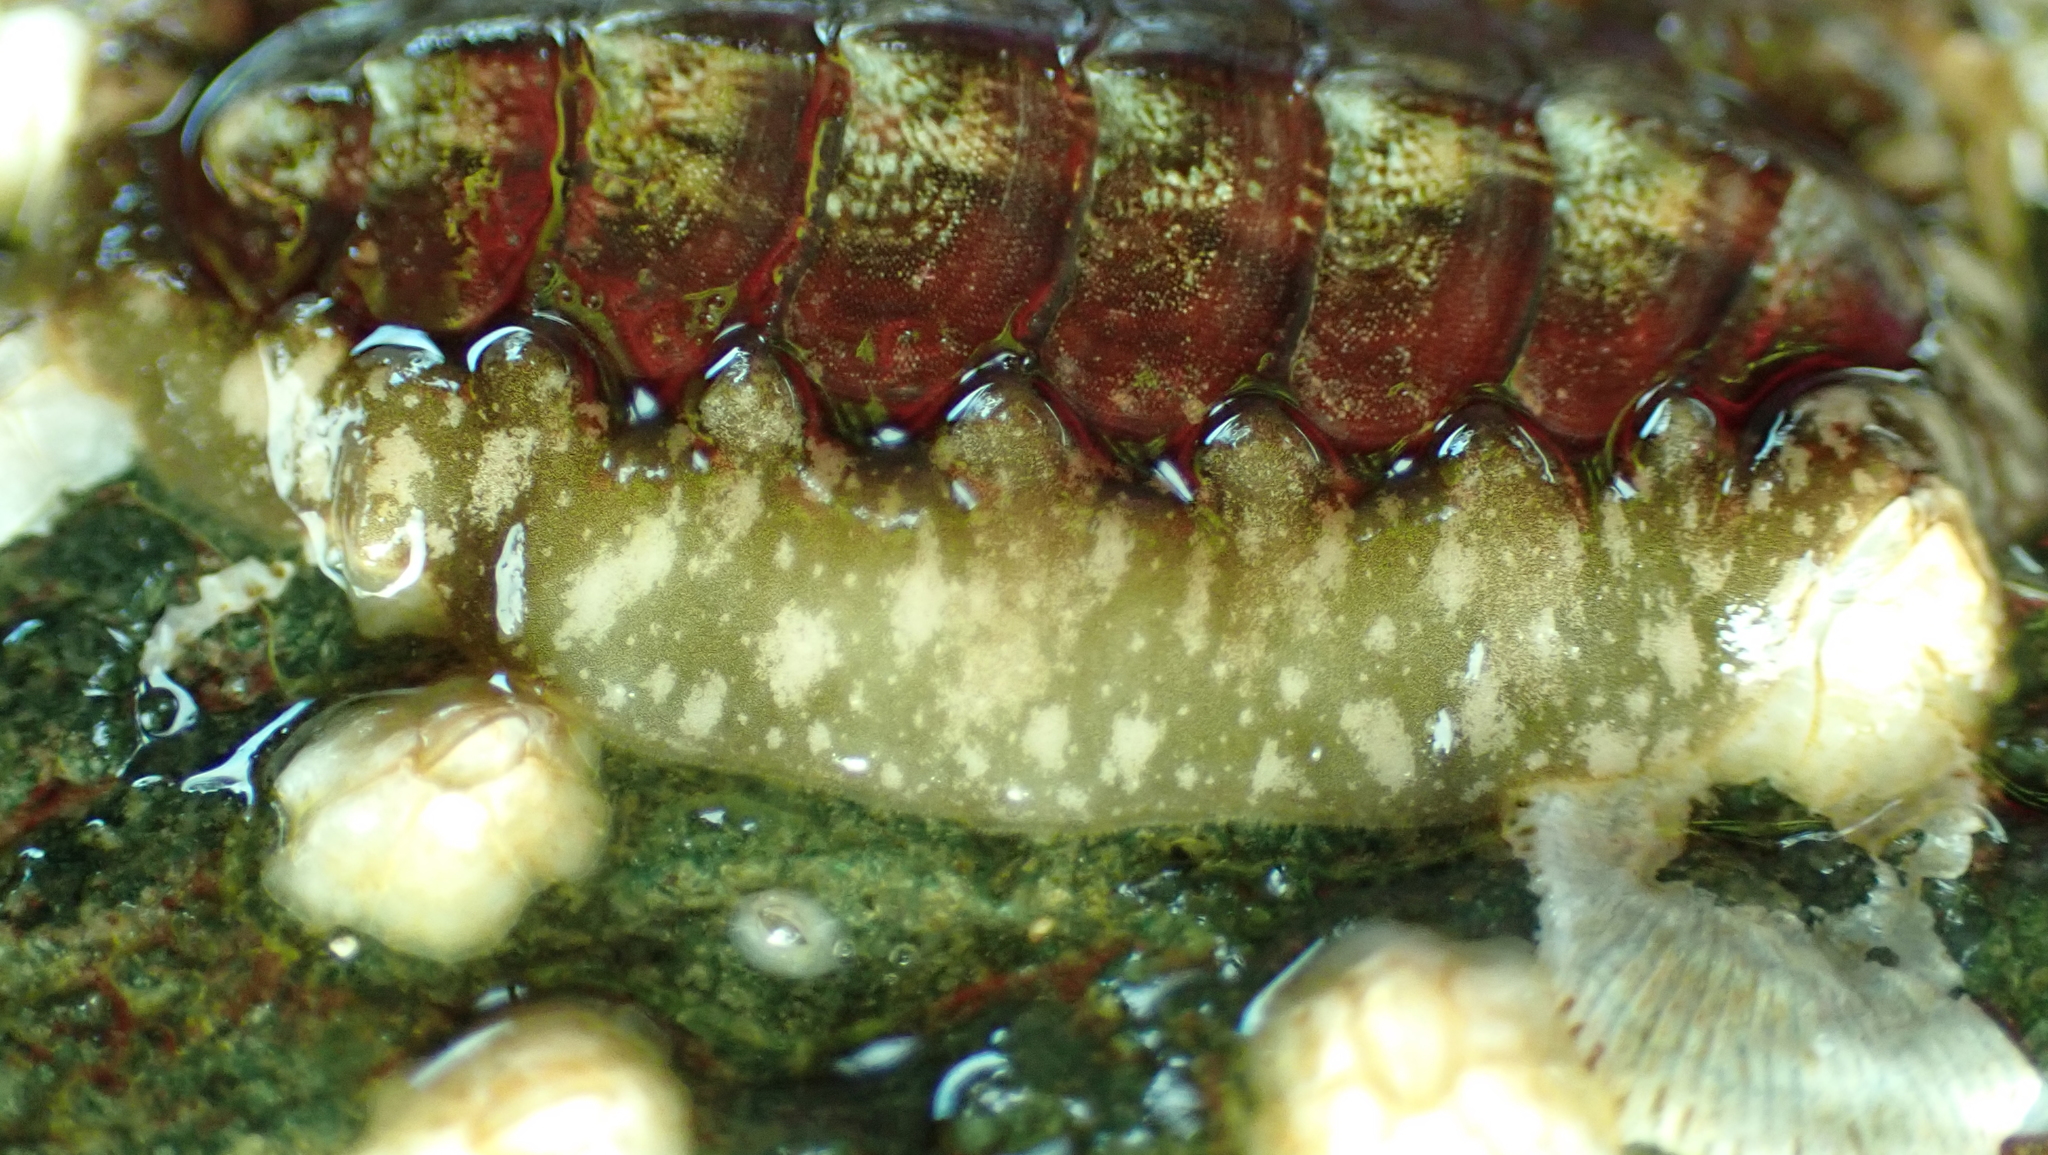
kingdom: Animalia
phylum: Mollusca
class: Polyplacophora
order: Chitonida
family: Tonicellidae
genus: Cyanoplax
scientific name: Cyanoplax dentiens
